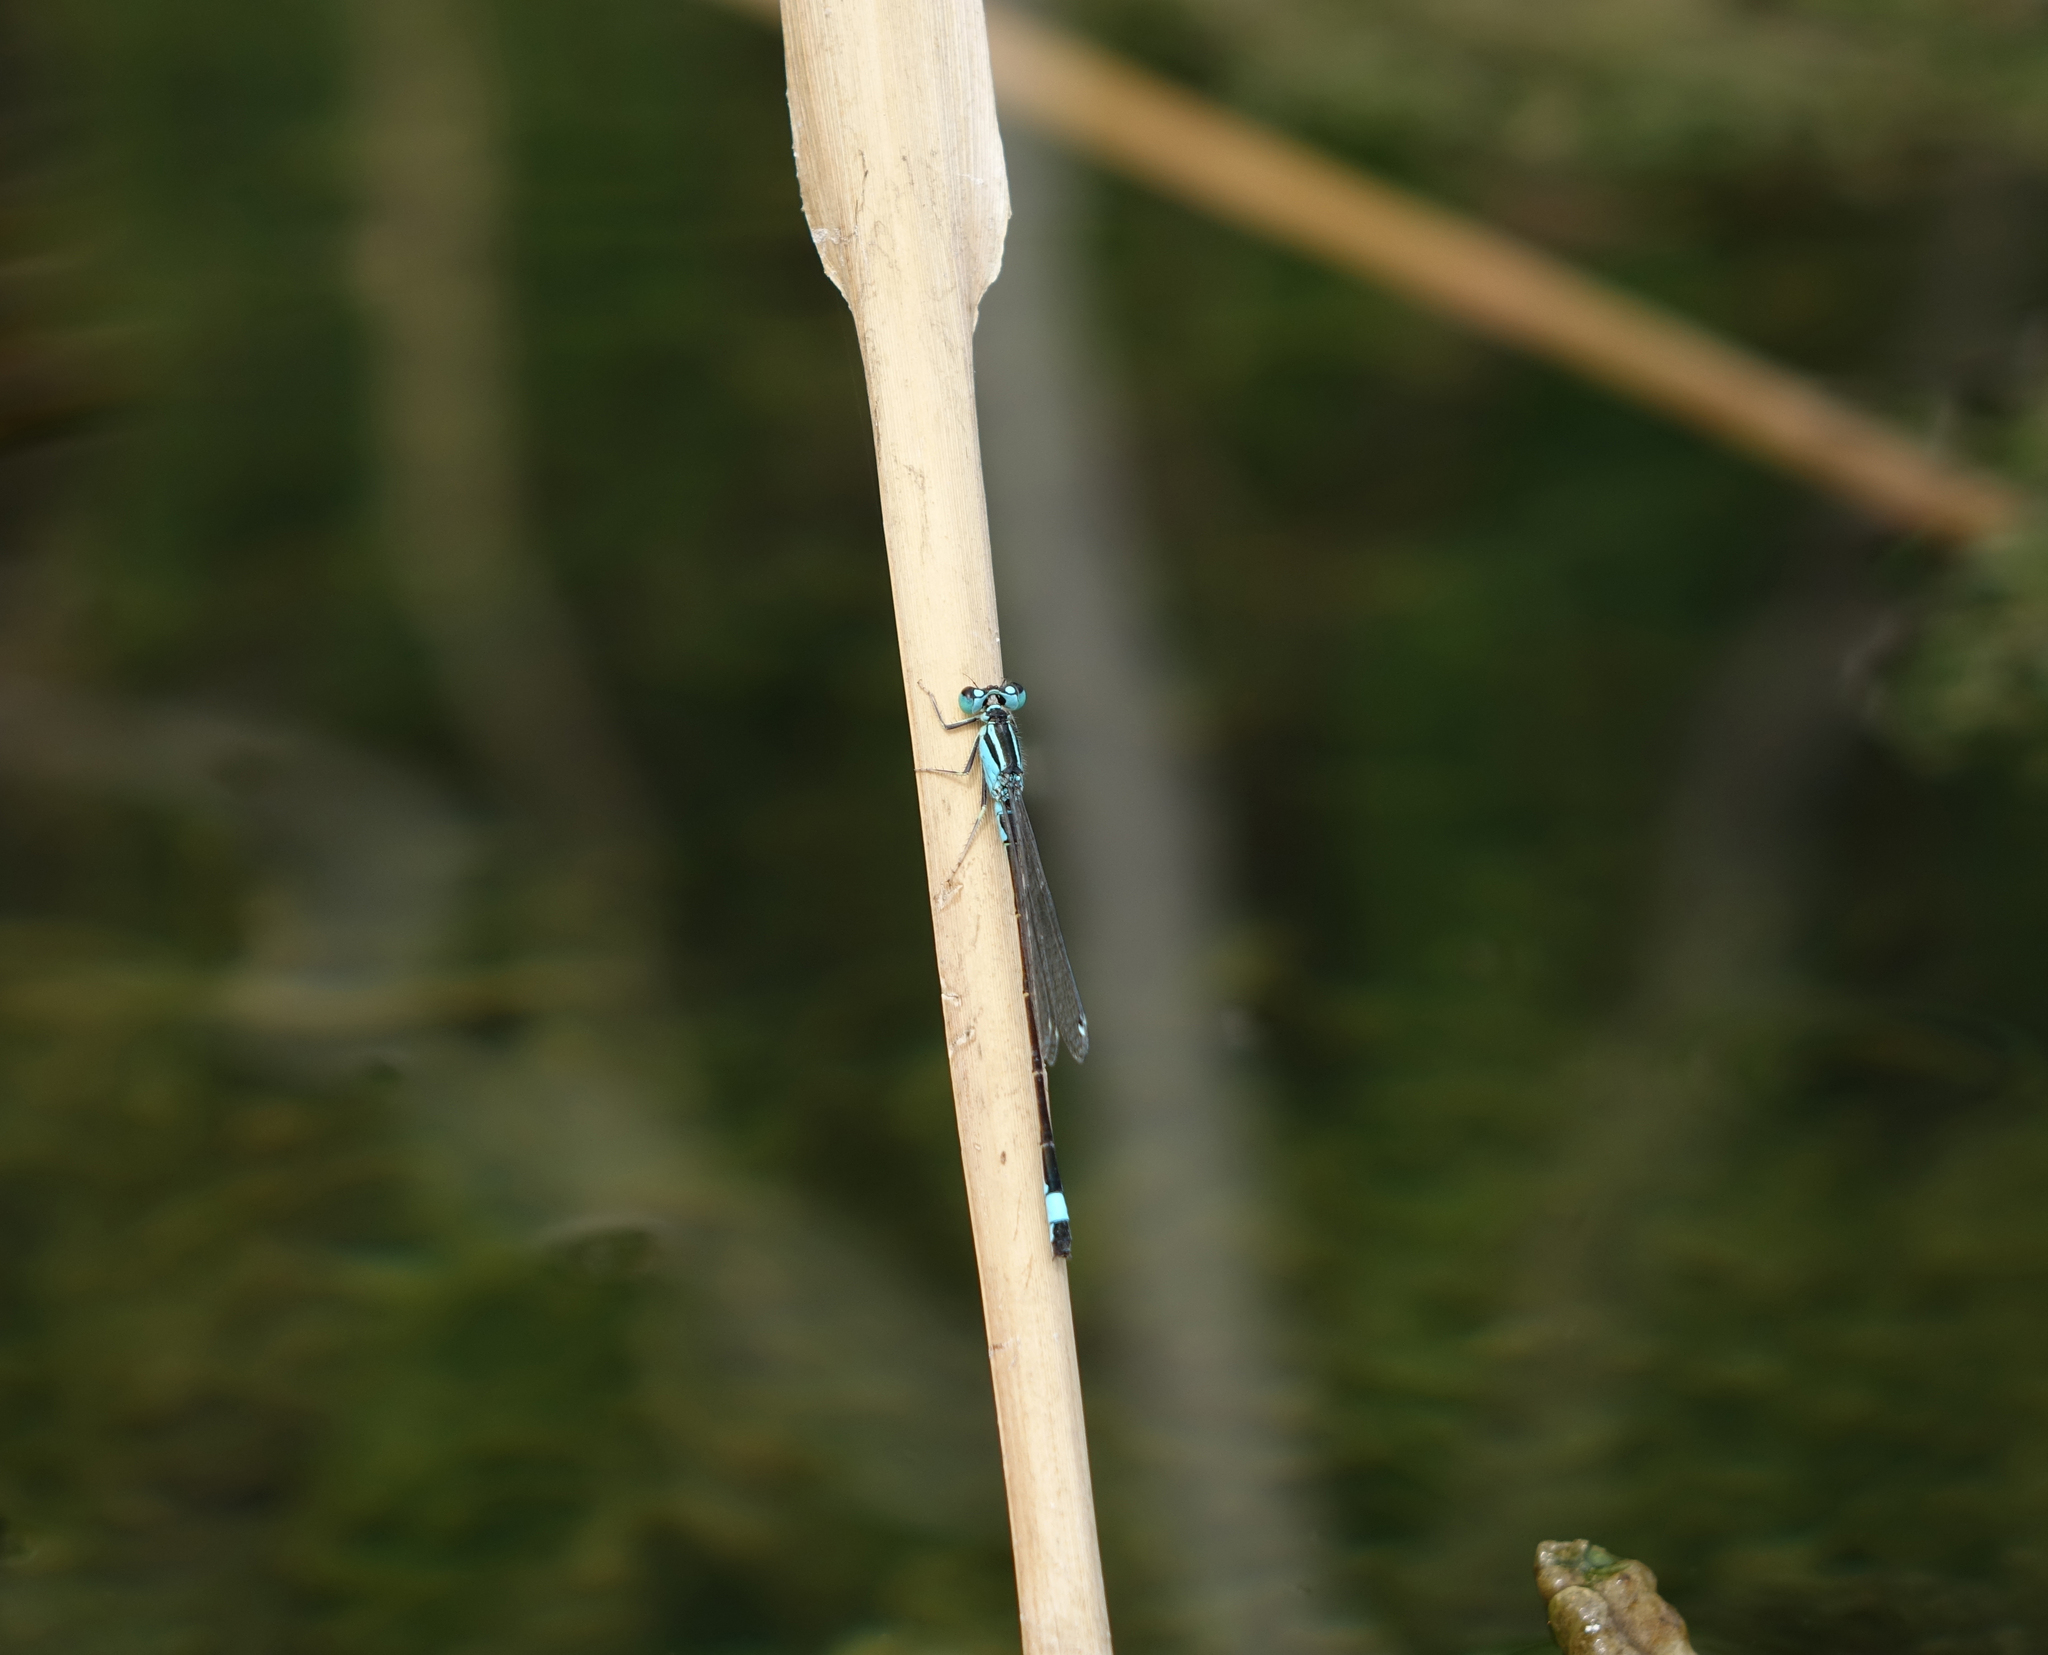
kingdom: Animalia
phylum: Arthropoda
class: Insecta
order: Odonata
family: Coenagrionidae
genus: Ischnura
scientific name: Ischnura elegans
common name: Blue-tailed damselfly
